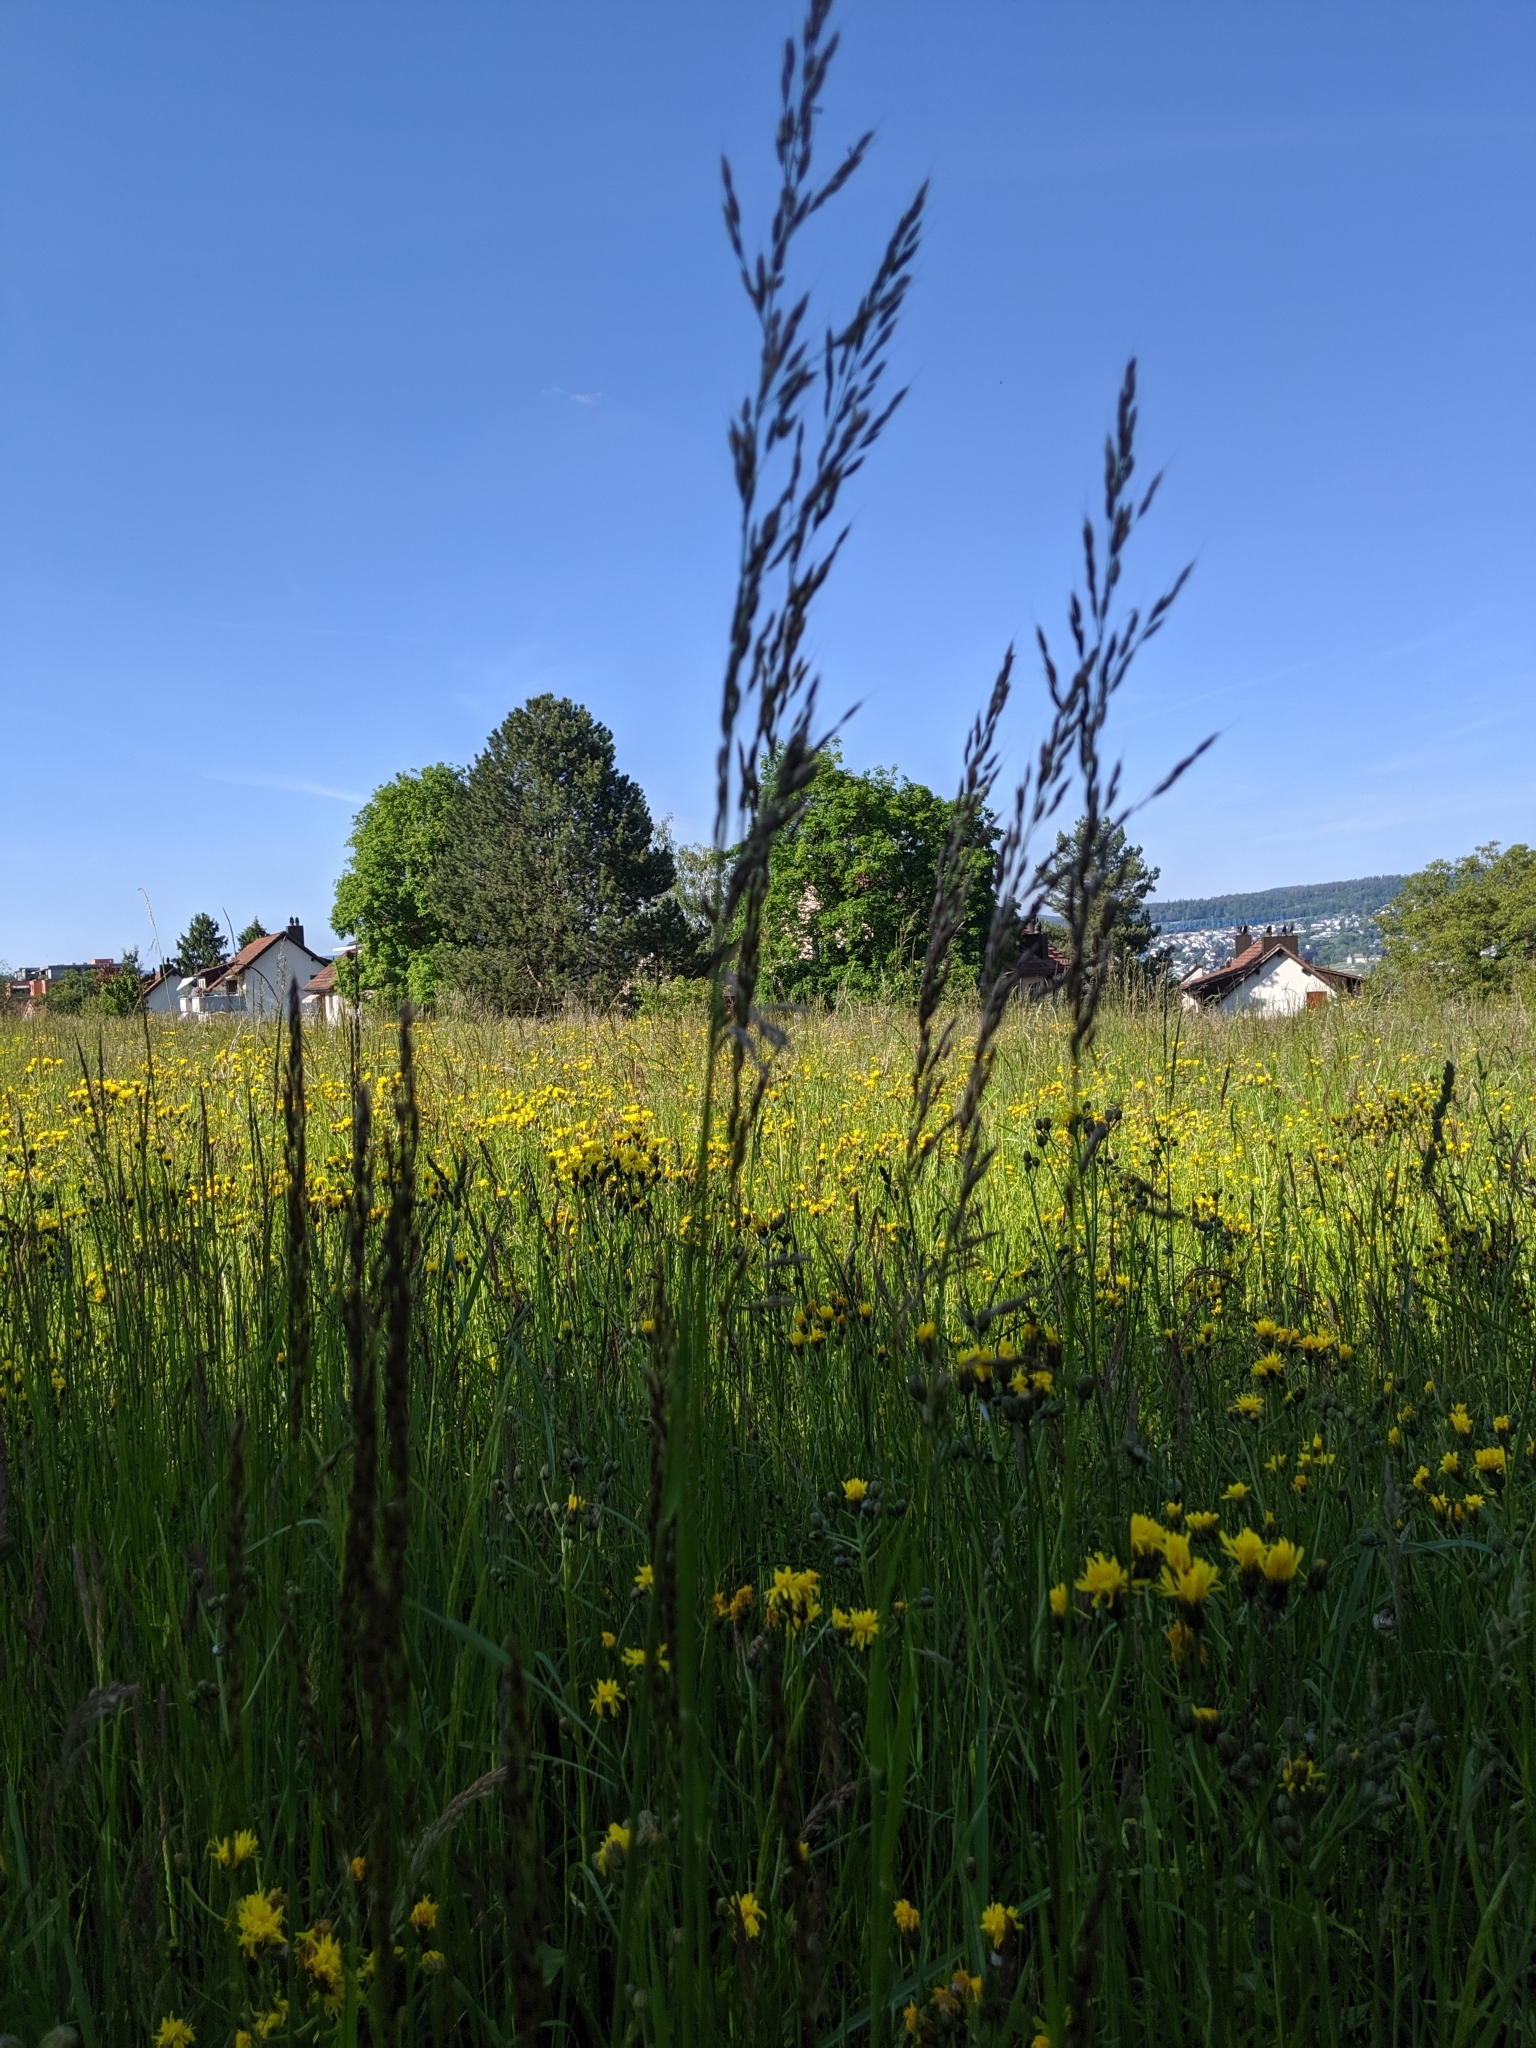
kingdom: Plantae
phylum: Tracheophyta
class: Liliopsida
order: Poales
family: Poaceae
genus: Arrhenatherum
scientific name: Arrhenatherum elatius
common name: Tall oatgrass
